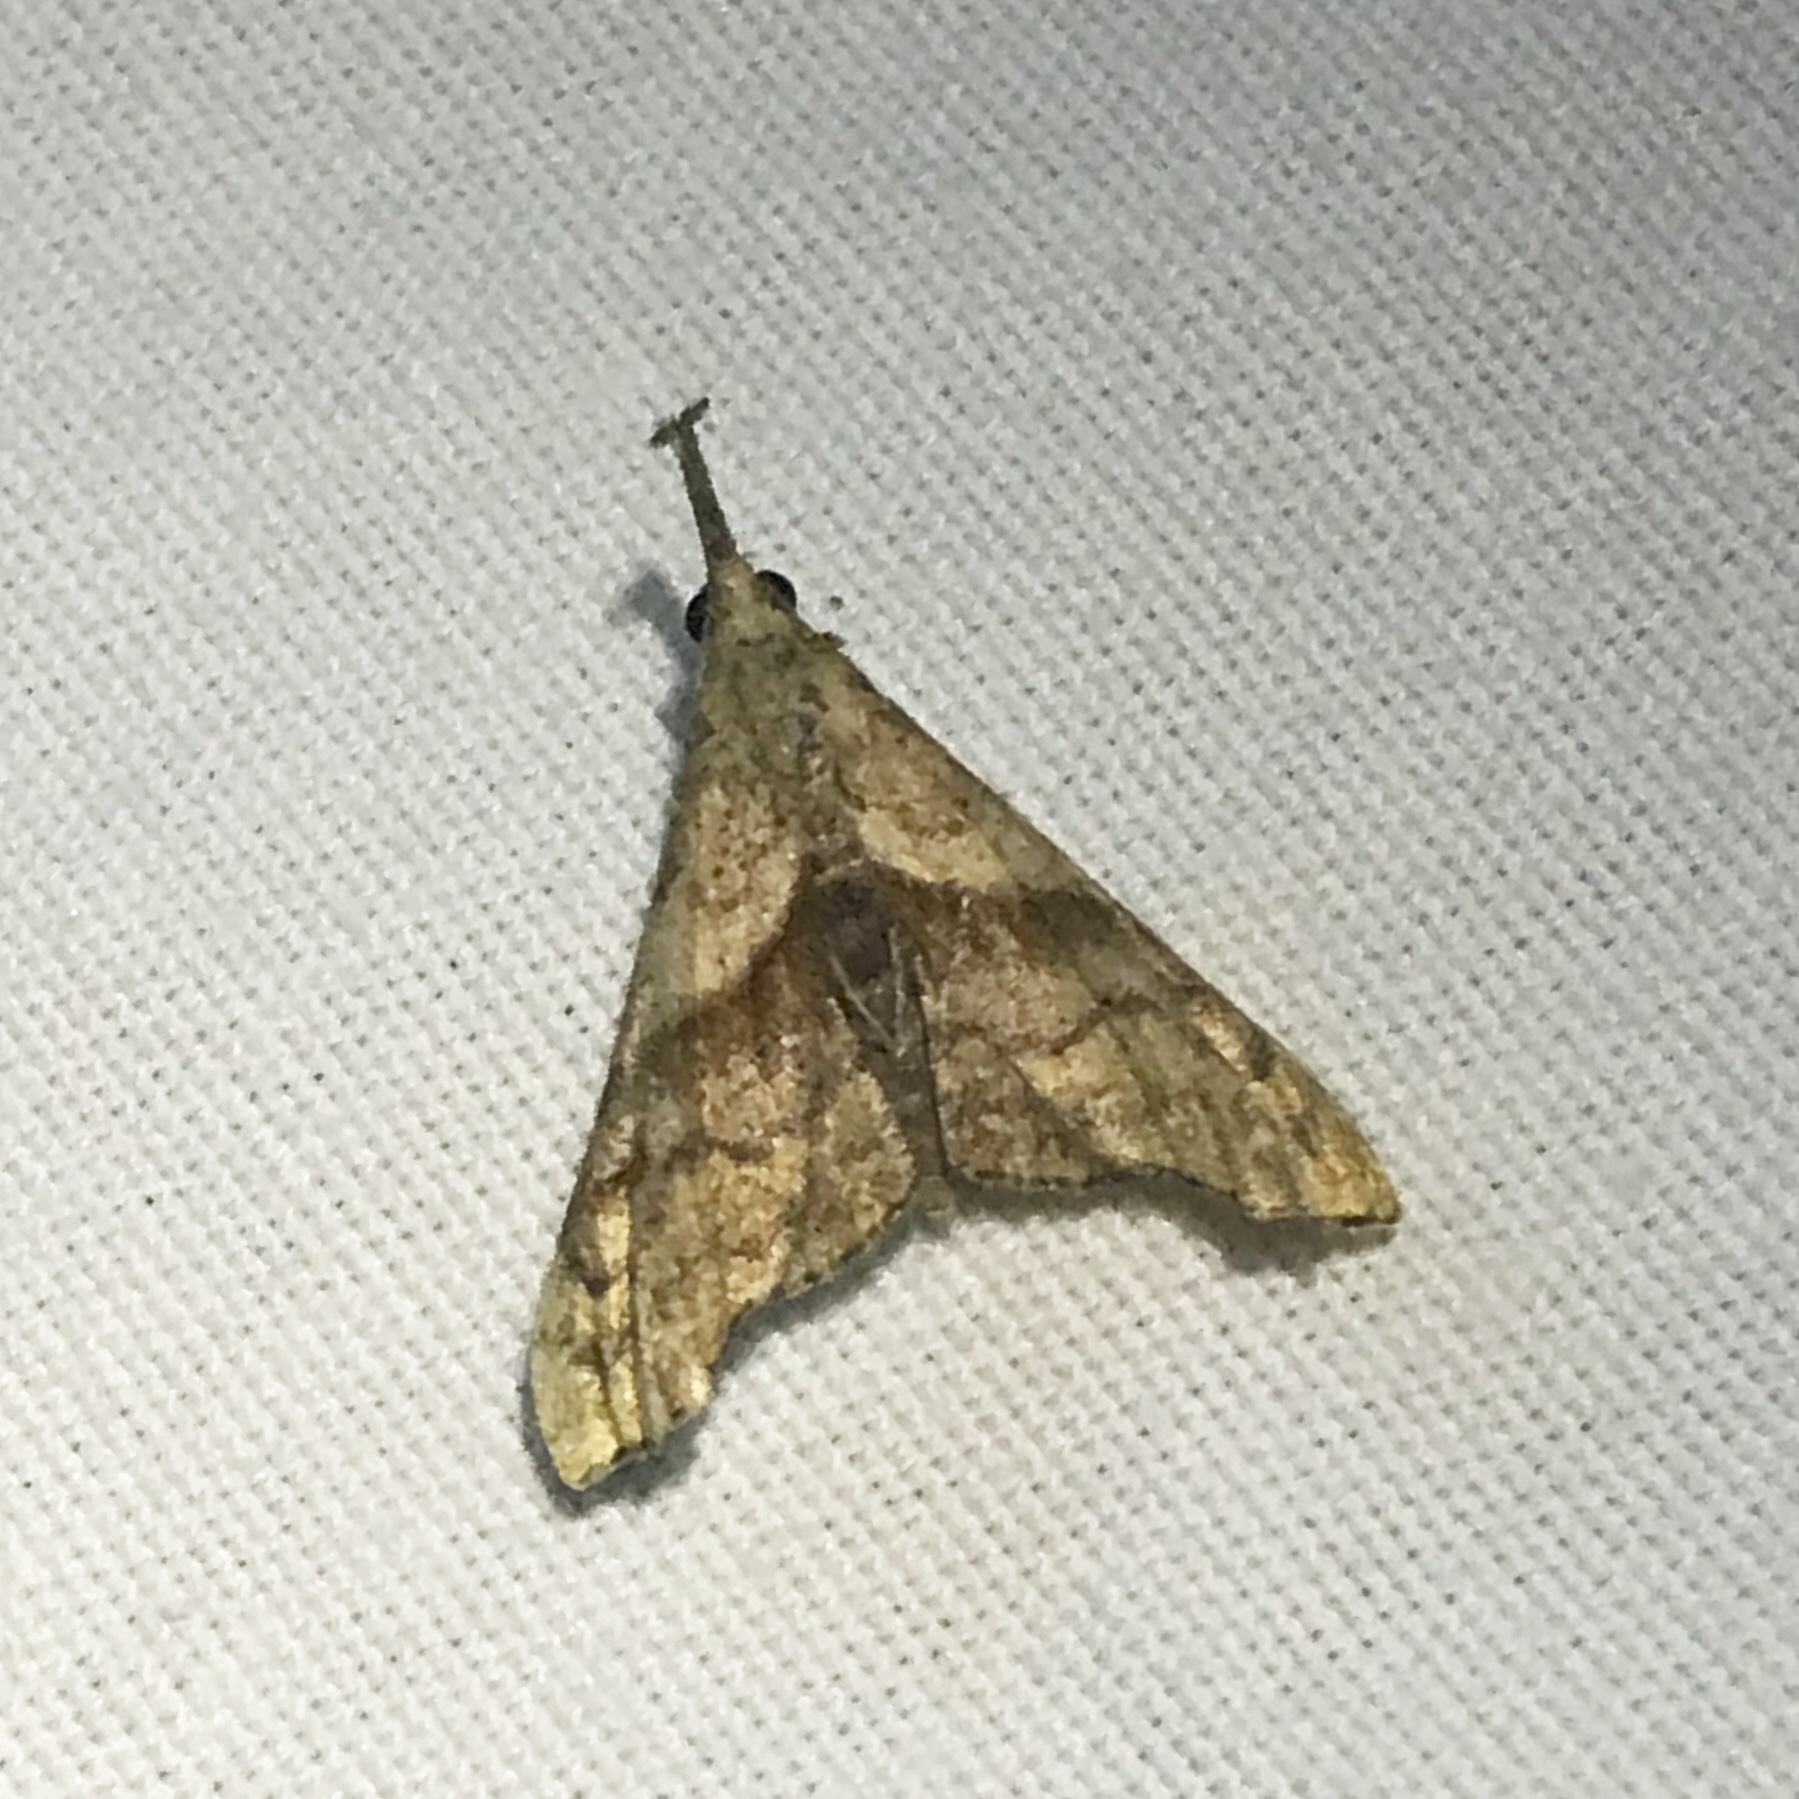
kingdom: Animalia
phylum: Arthropoda
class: Insecta
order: Lepidoptera
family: Erebidae
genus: Palthis
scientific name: Palthis angulalis
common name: Dark-spotted palthis moth
